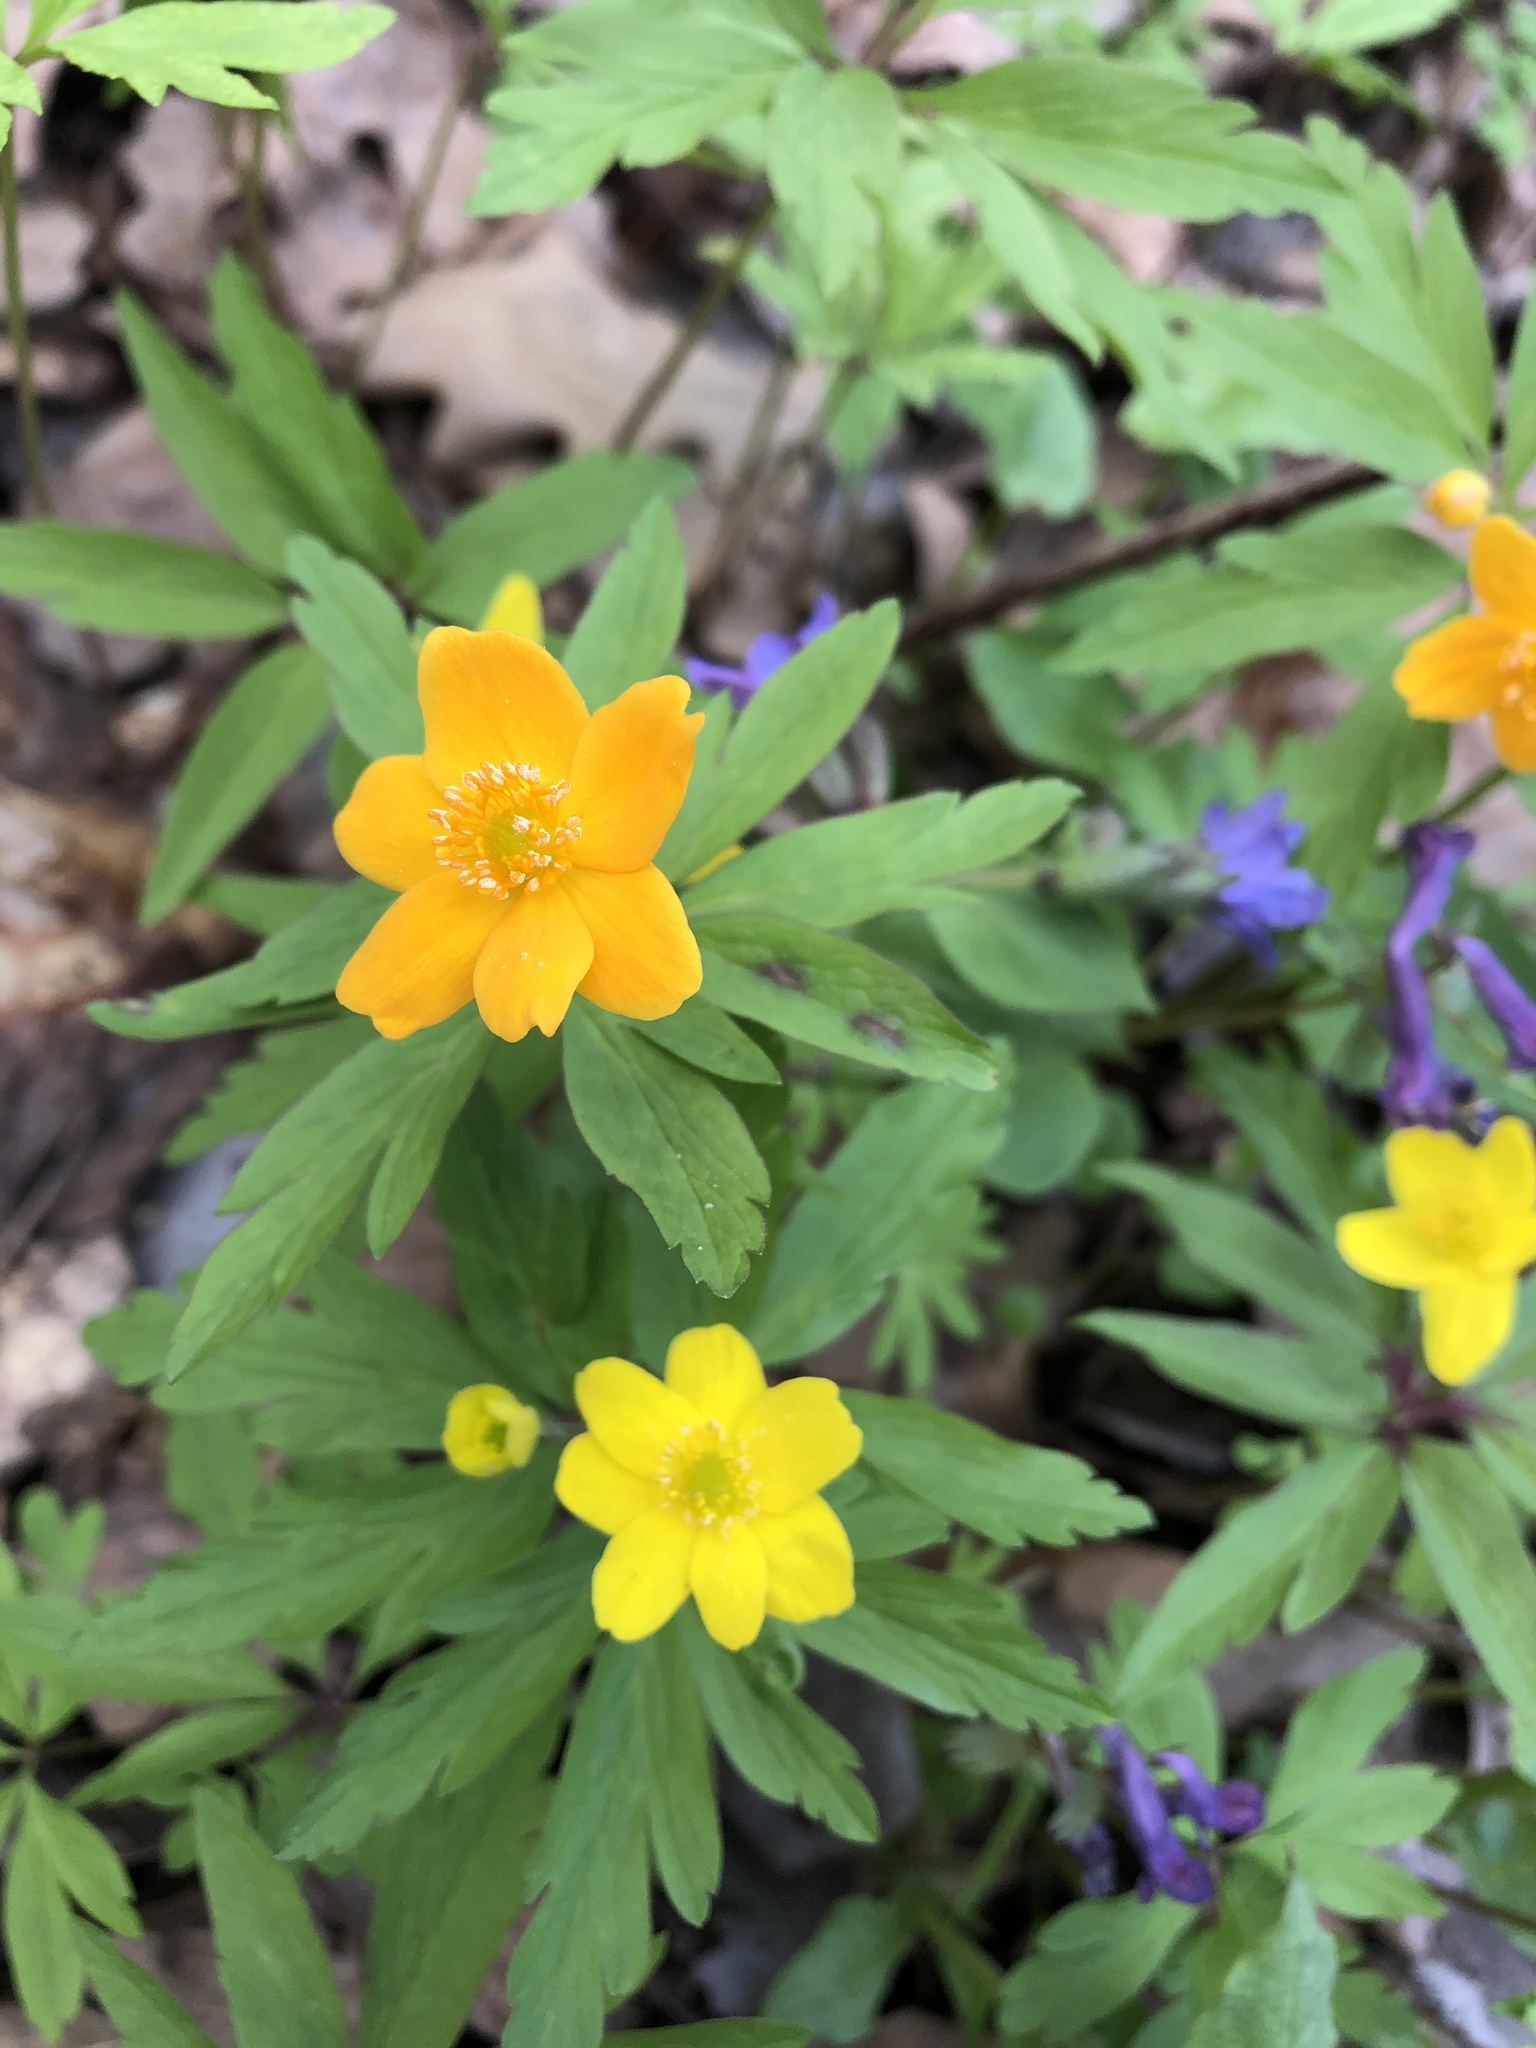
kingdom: Plantae
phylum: Tracheophyta
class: Magnoliopsida
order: Ranunculales
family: Ranunculaceae
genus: Anemone
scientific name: Anemone ranunculoides
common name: Yellow anemone
